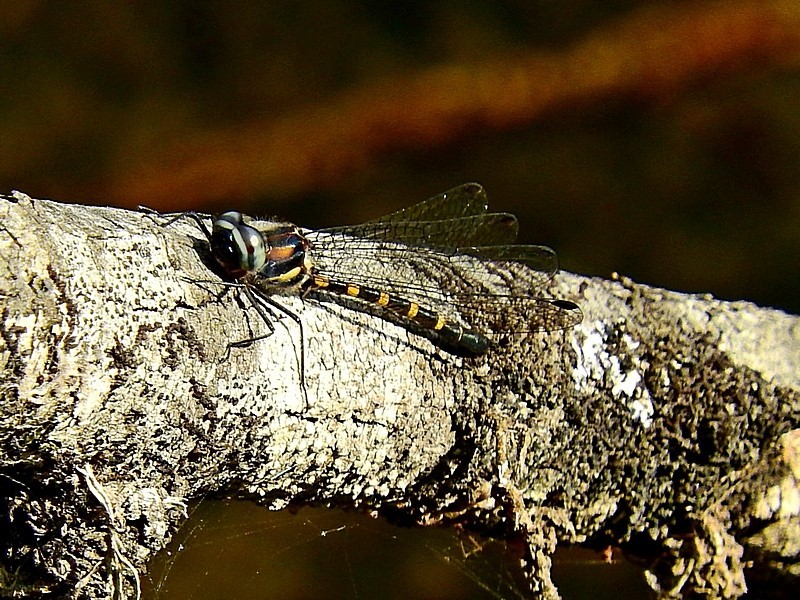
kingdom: Animalia
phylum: Arthropoda
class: Insecta
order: Odonata
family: Corduliidae
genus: Cordulephya
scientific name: Cordulephya pygmaea
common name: Common shutwing
